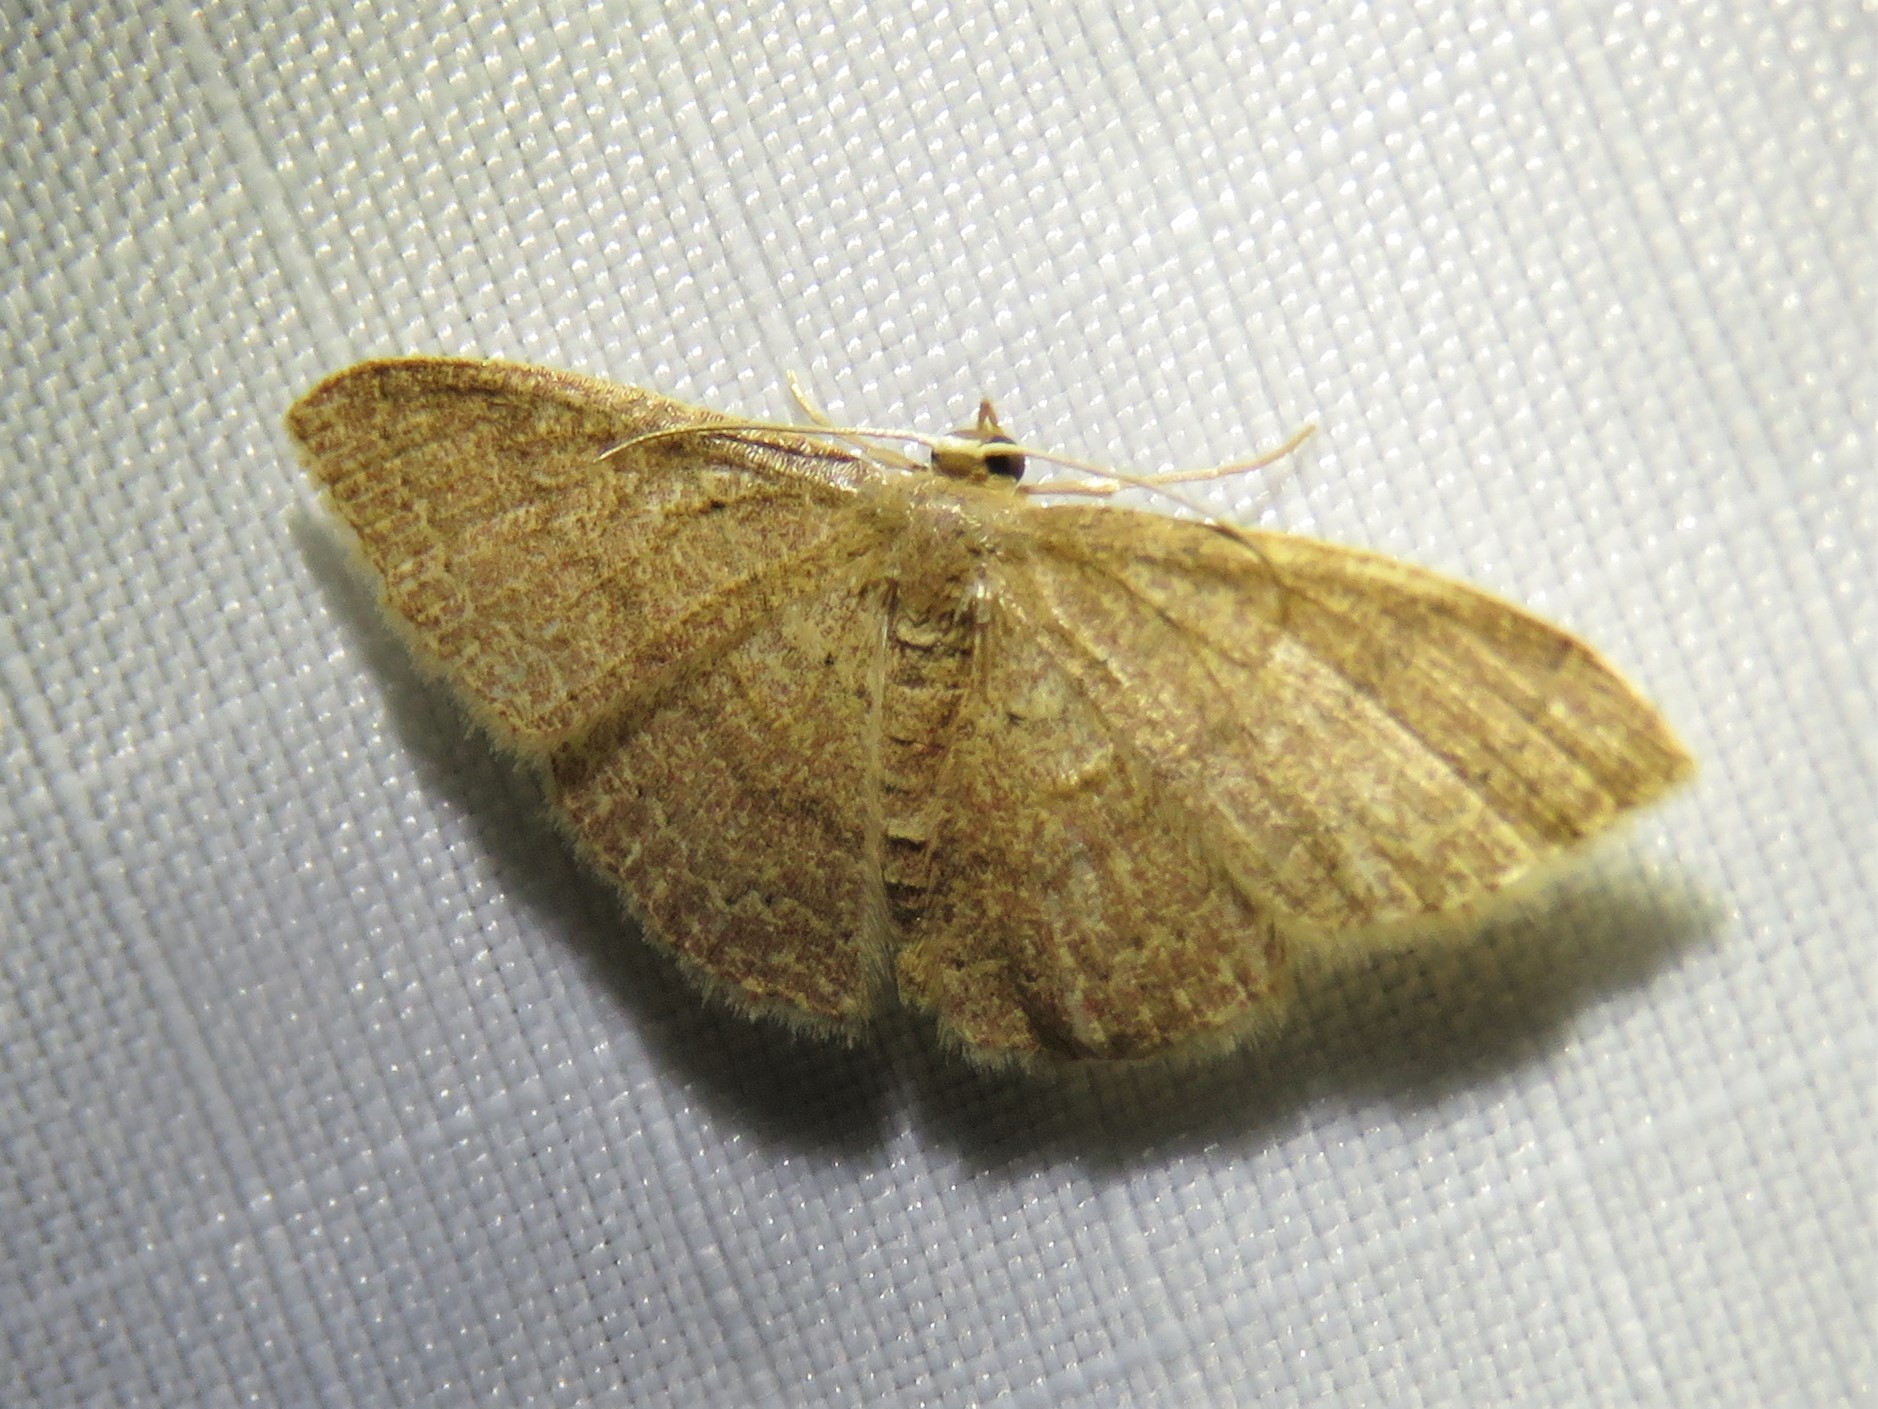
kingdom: Animalia
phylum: Arthropoda
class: Insecta
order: Lepidoptera
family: Geometridae
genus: Pleuroprucha
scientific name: Pleuroprucha insulsaria
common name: Common tan wave
